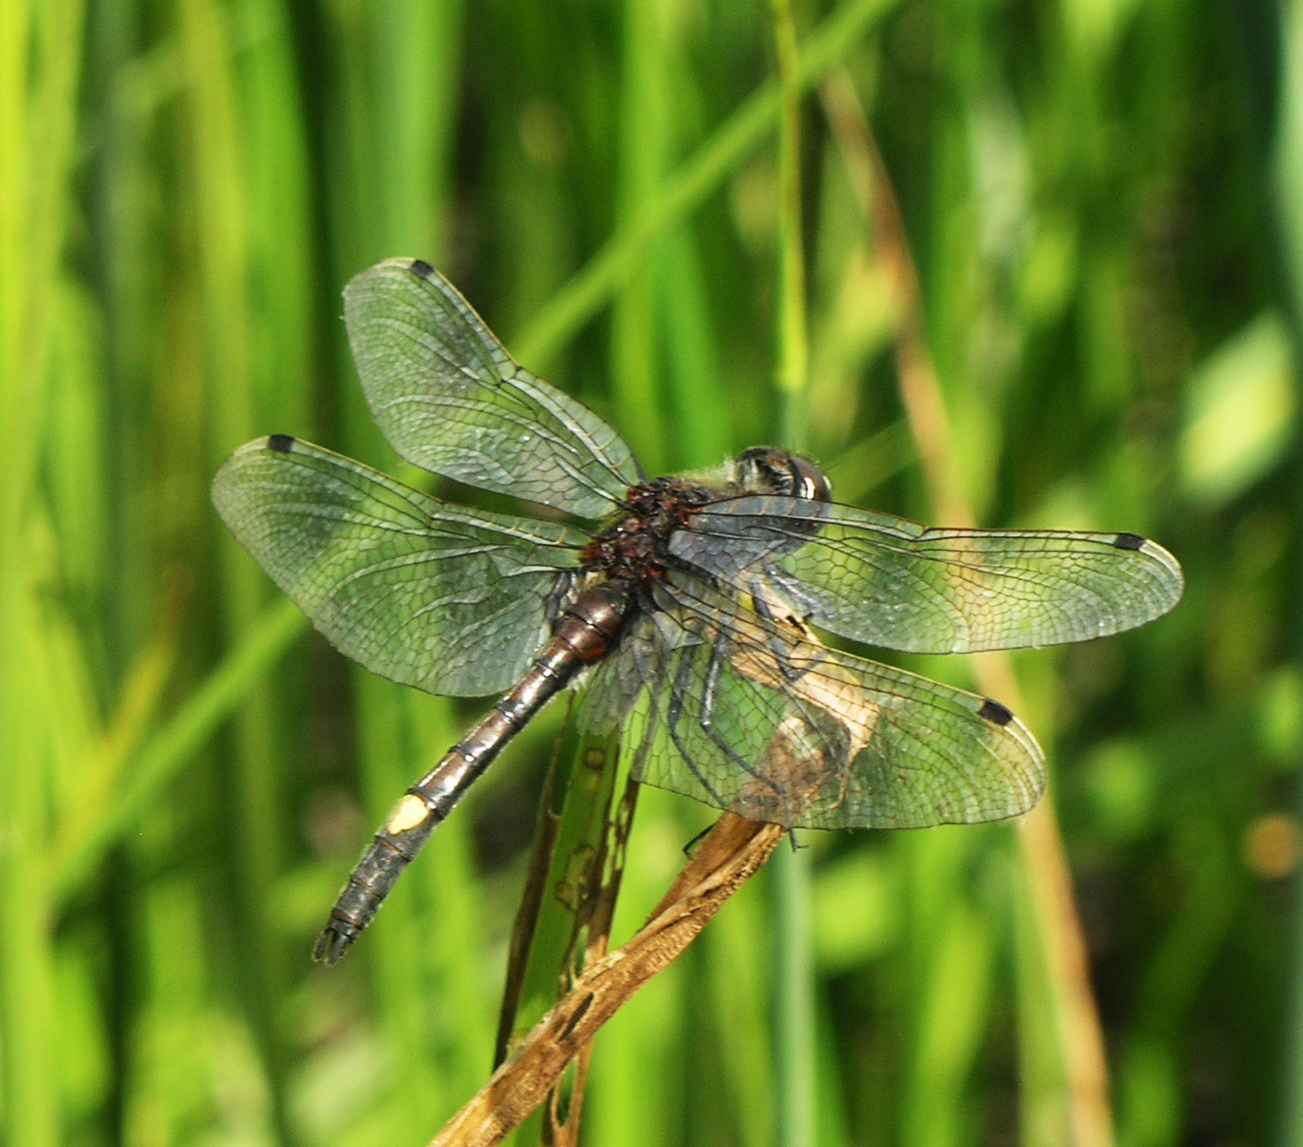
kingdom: Animalia
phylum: Arthropoda
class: Insecta
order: Odonata
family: Libellulidae
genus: Leucorrhinia
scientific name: Leucorrhinia pectoralis
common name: Yellow-spotted whiteface
